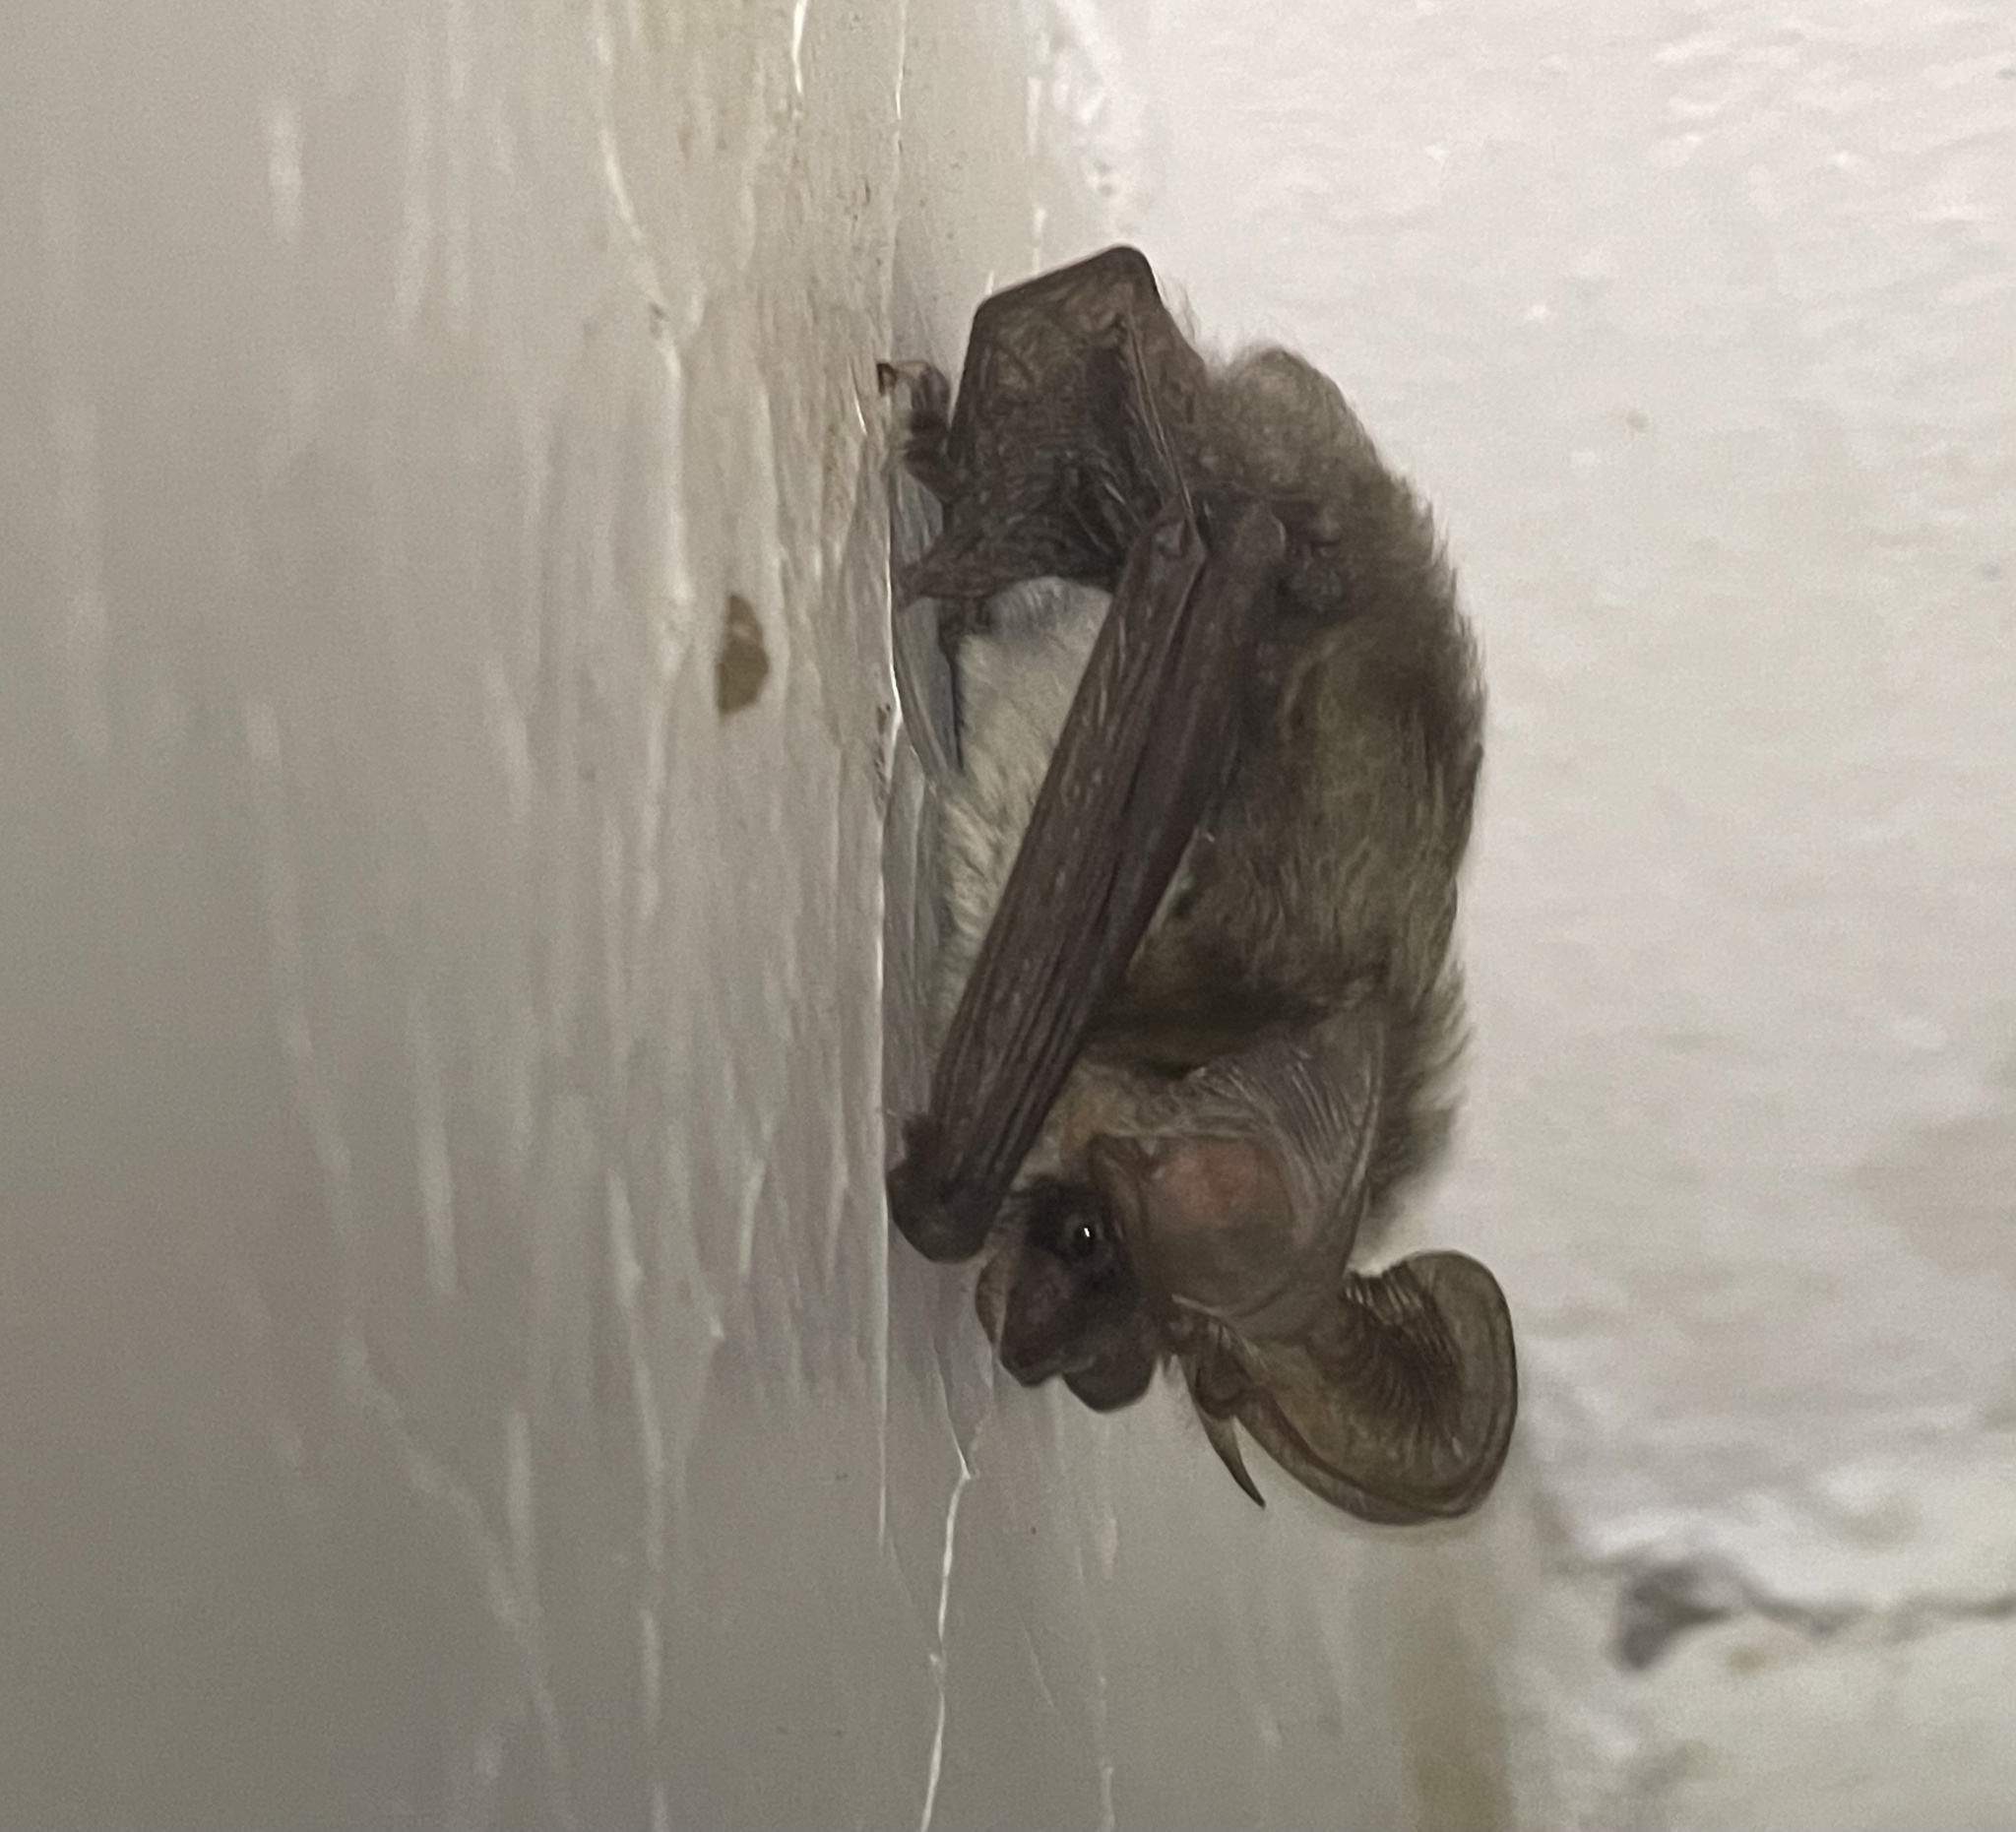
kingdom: Animalia
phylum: Chordata
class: Mammalia
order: Chiroptera
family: Vespertilionidae
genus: Plecotus
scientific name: Plecotus gaisleri
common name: Gaisler's big-eared bat
